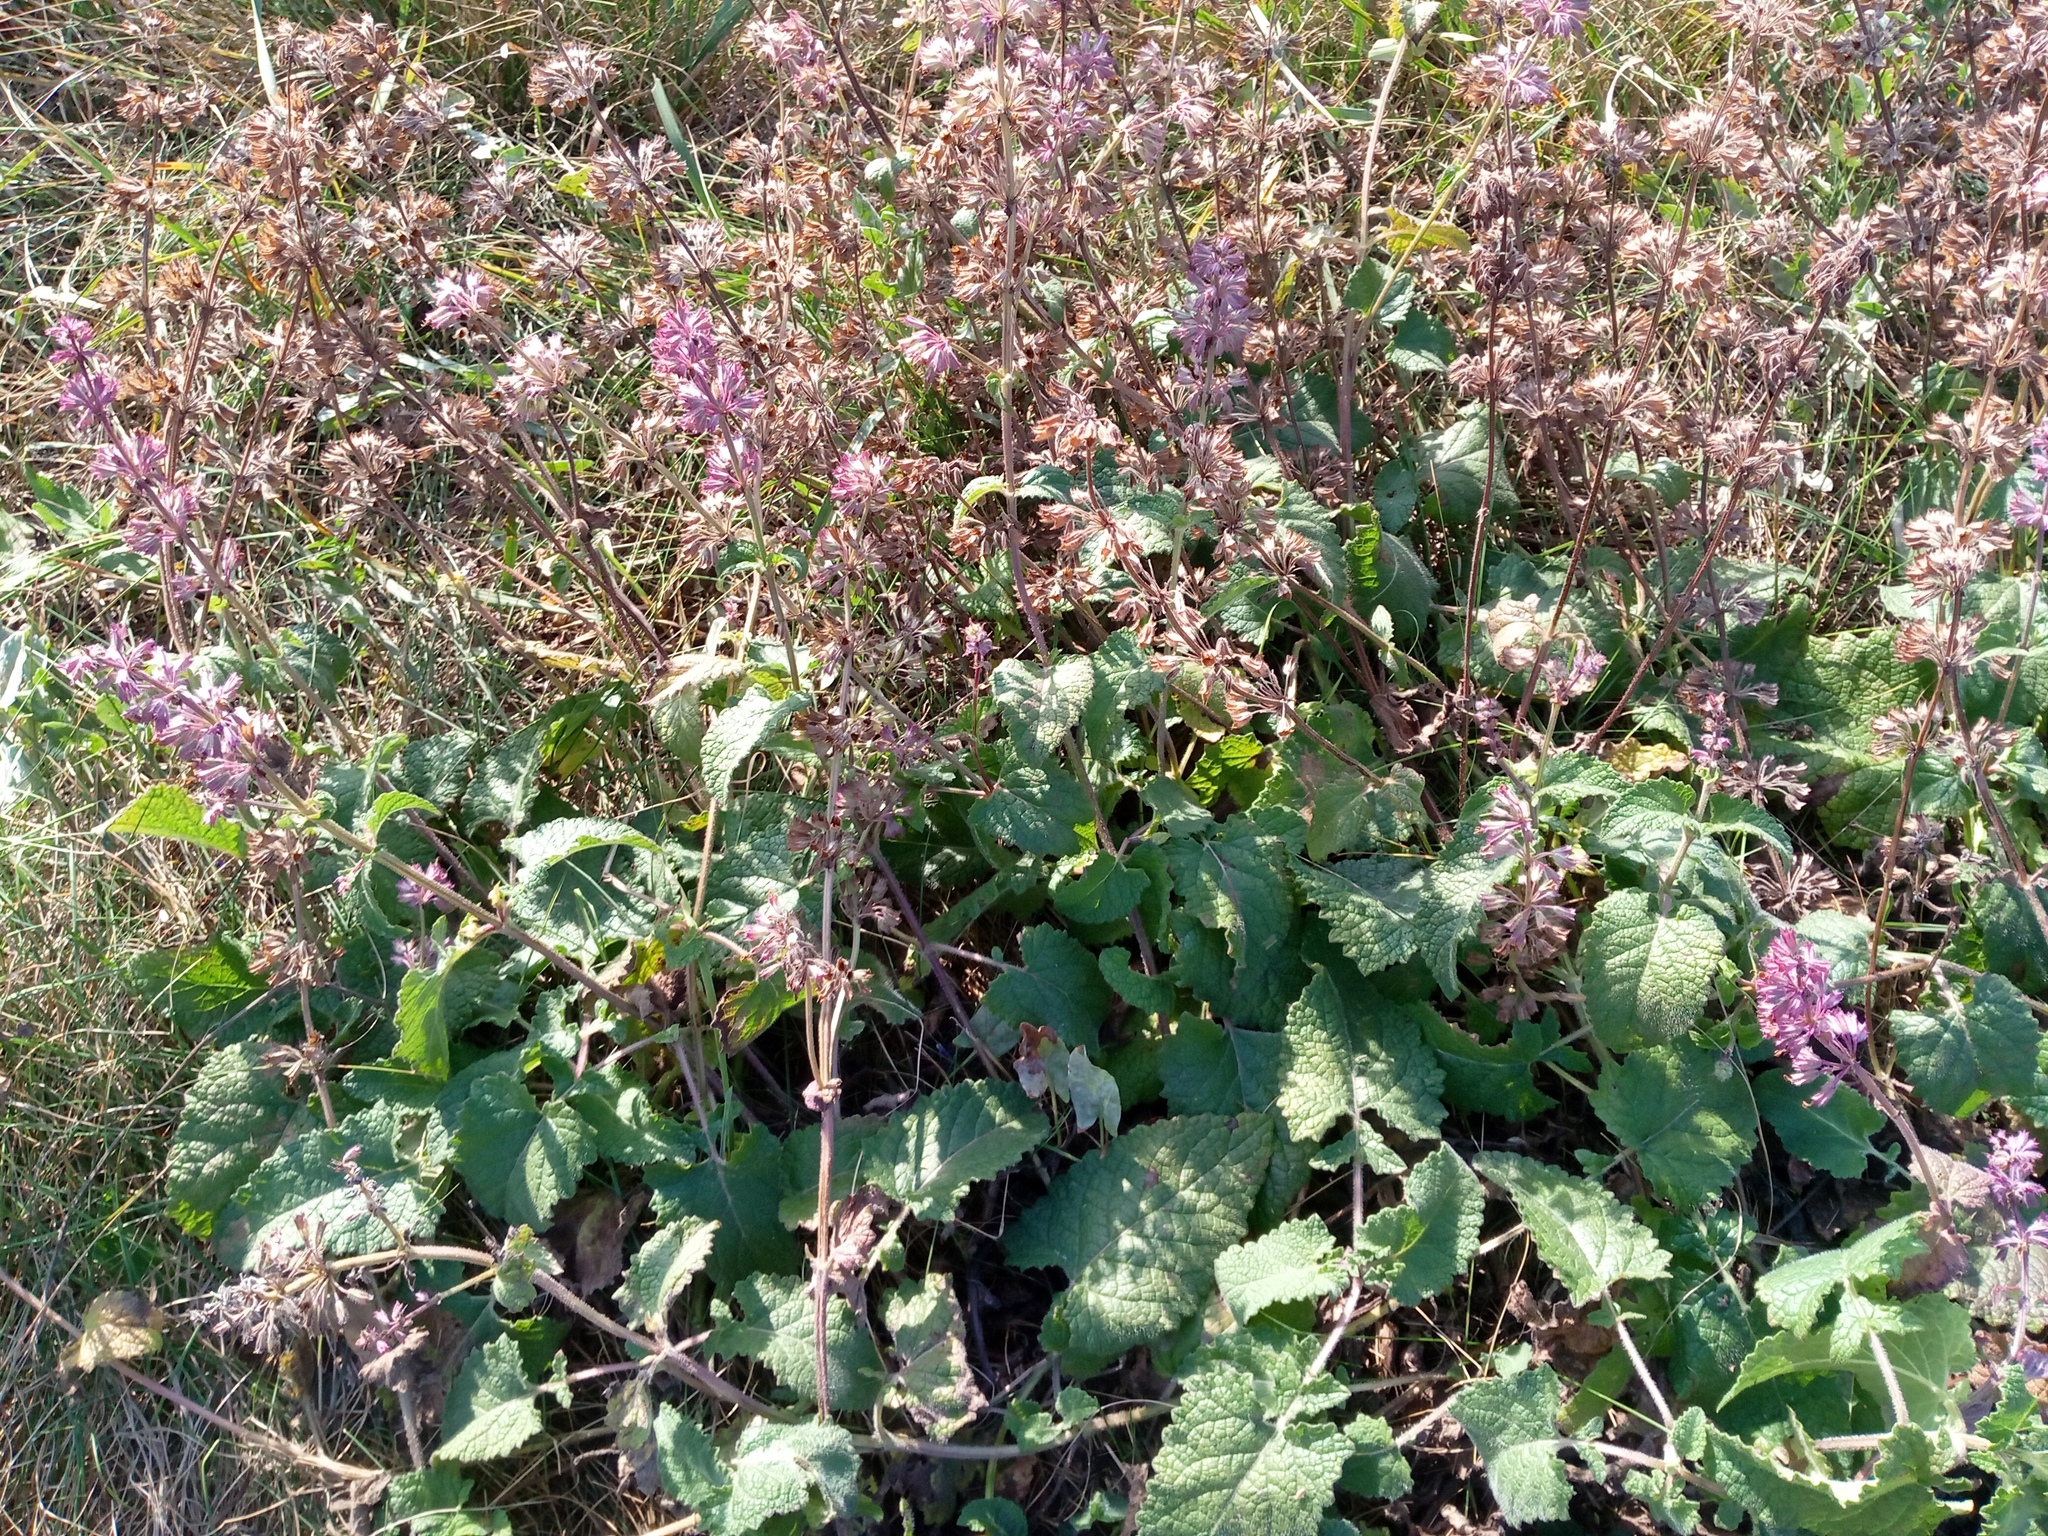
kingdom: Plantae
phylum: Tracheophyta
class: Magnoliopsida
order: Lamiales
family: Lamiaceae
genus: Salvia
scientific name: Salvia verticillata
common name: Whorled clary
